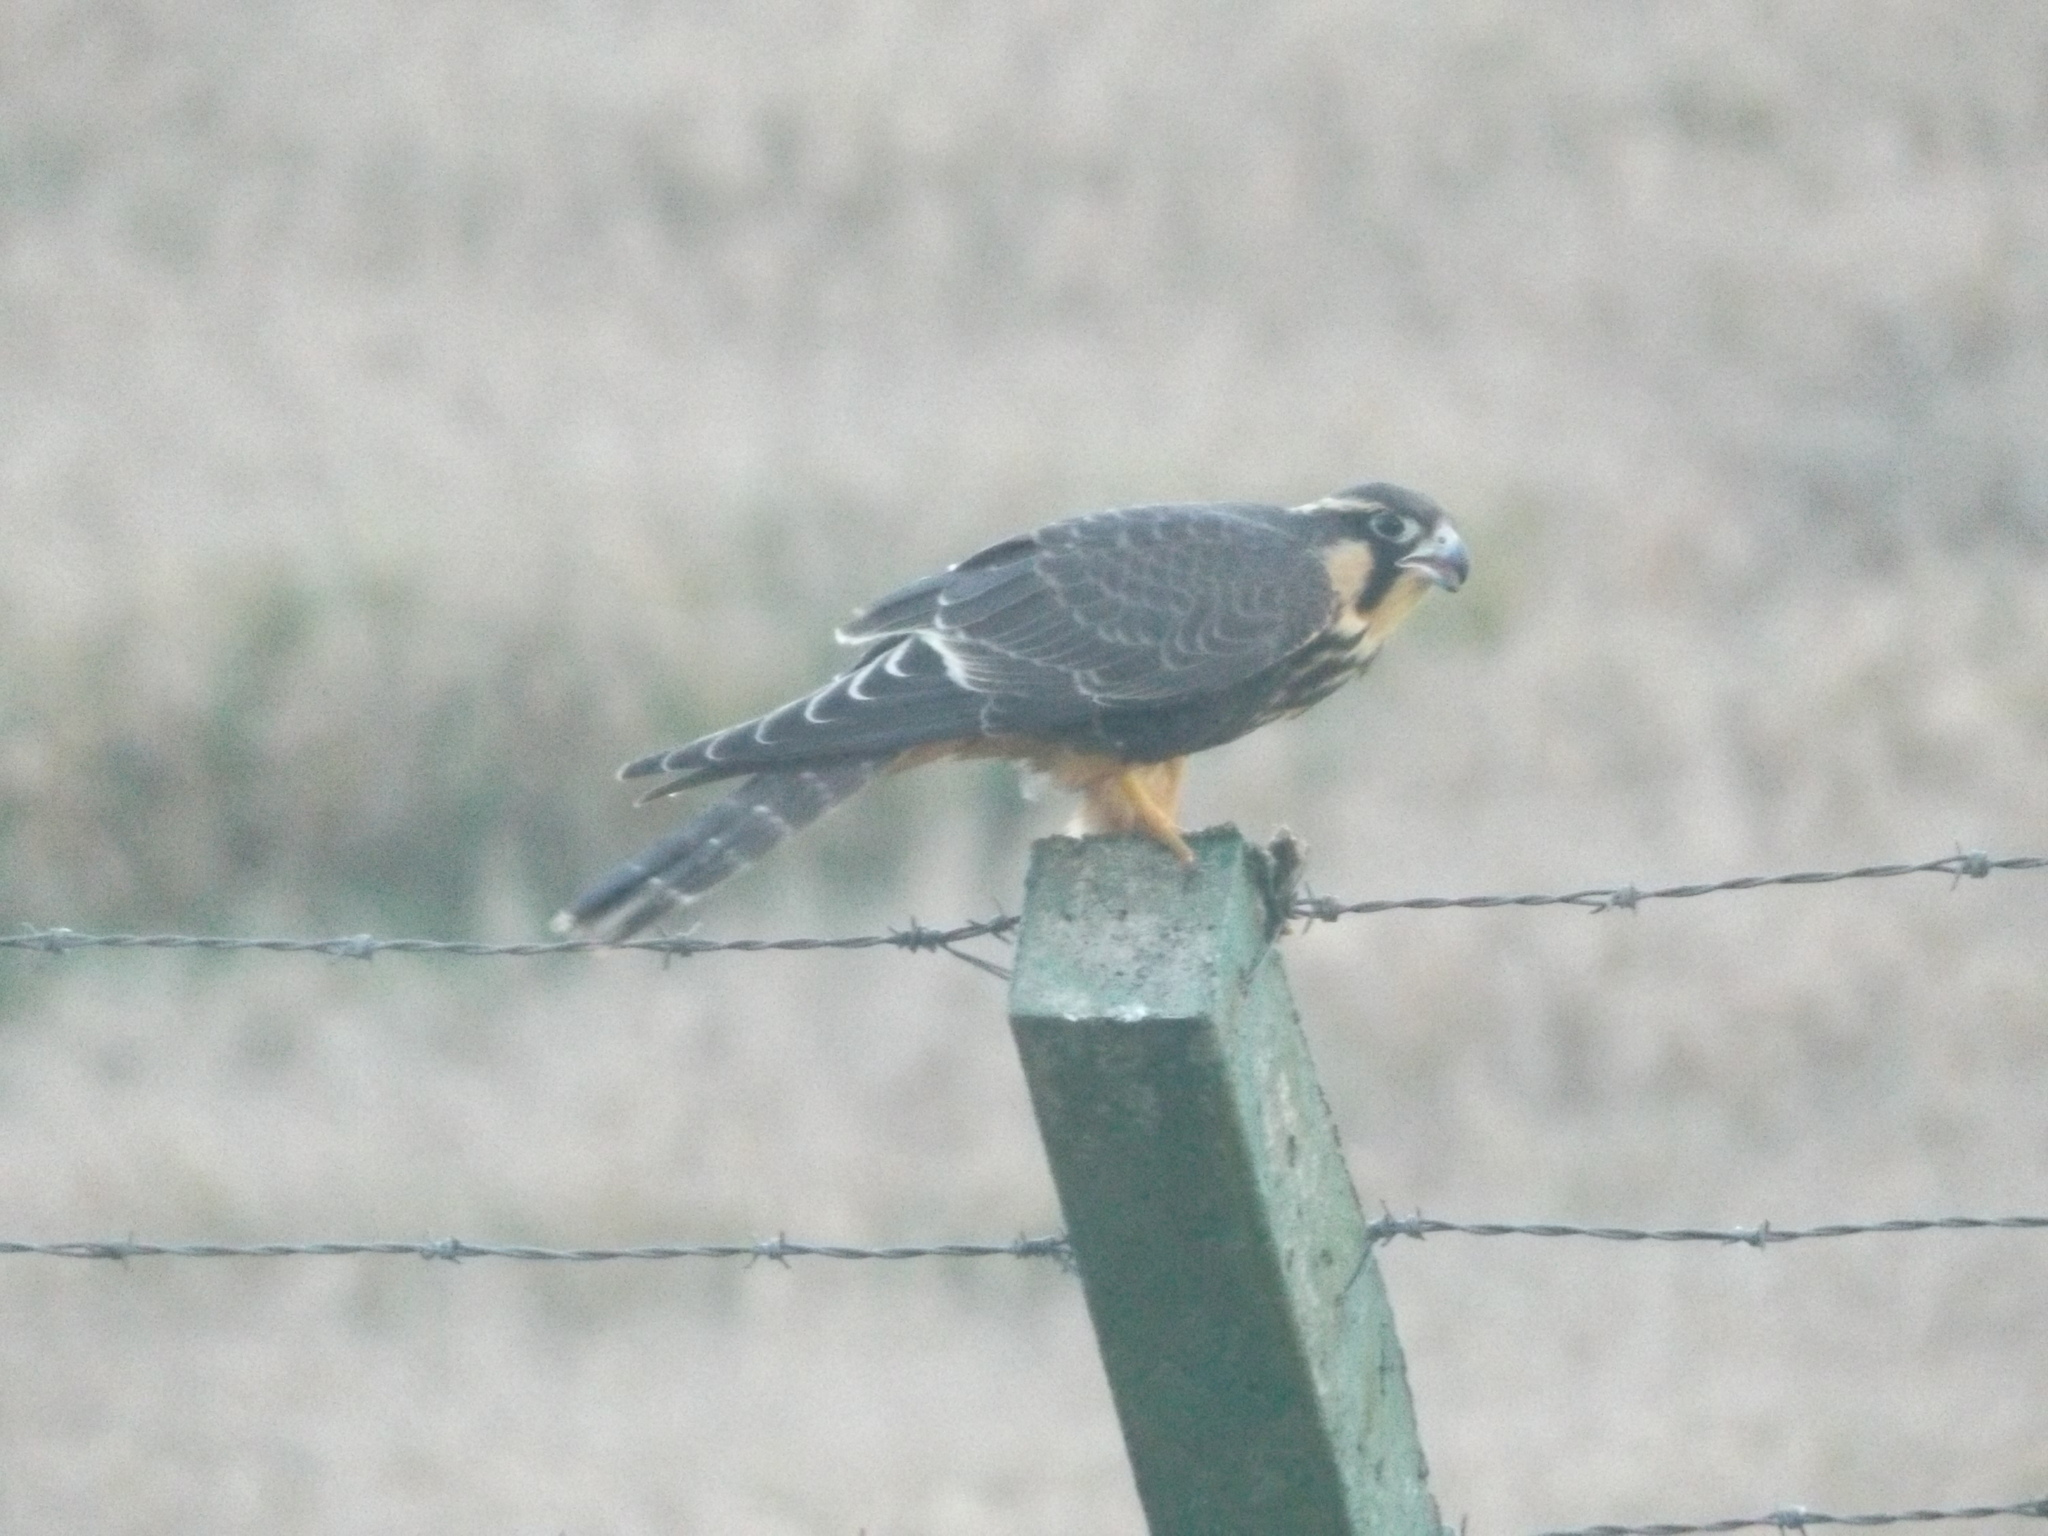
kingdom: Animalia
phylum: Chordata
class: Aves
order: Falconiformes
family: Falconidae
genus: Falco
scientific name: Falco femoralis
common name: Aplomado falcon
